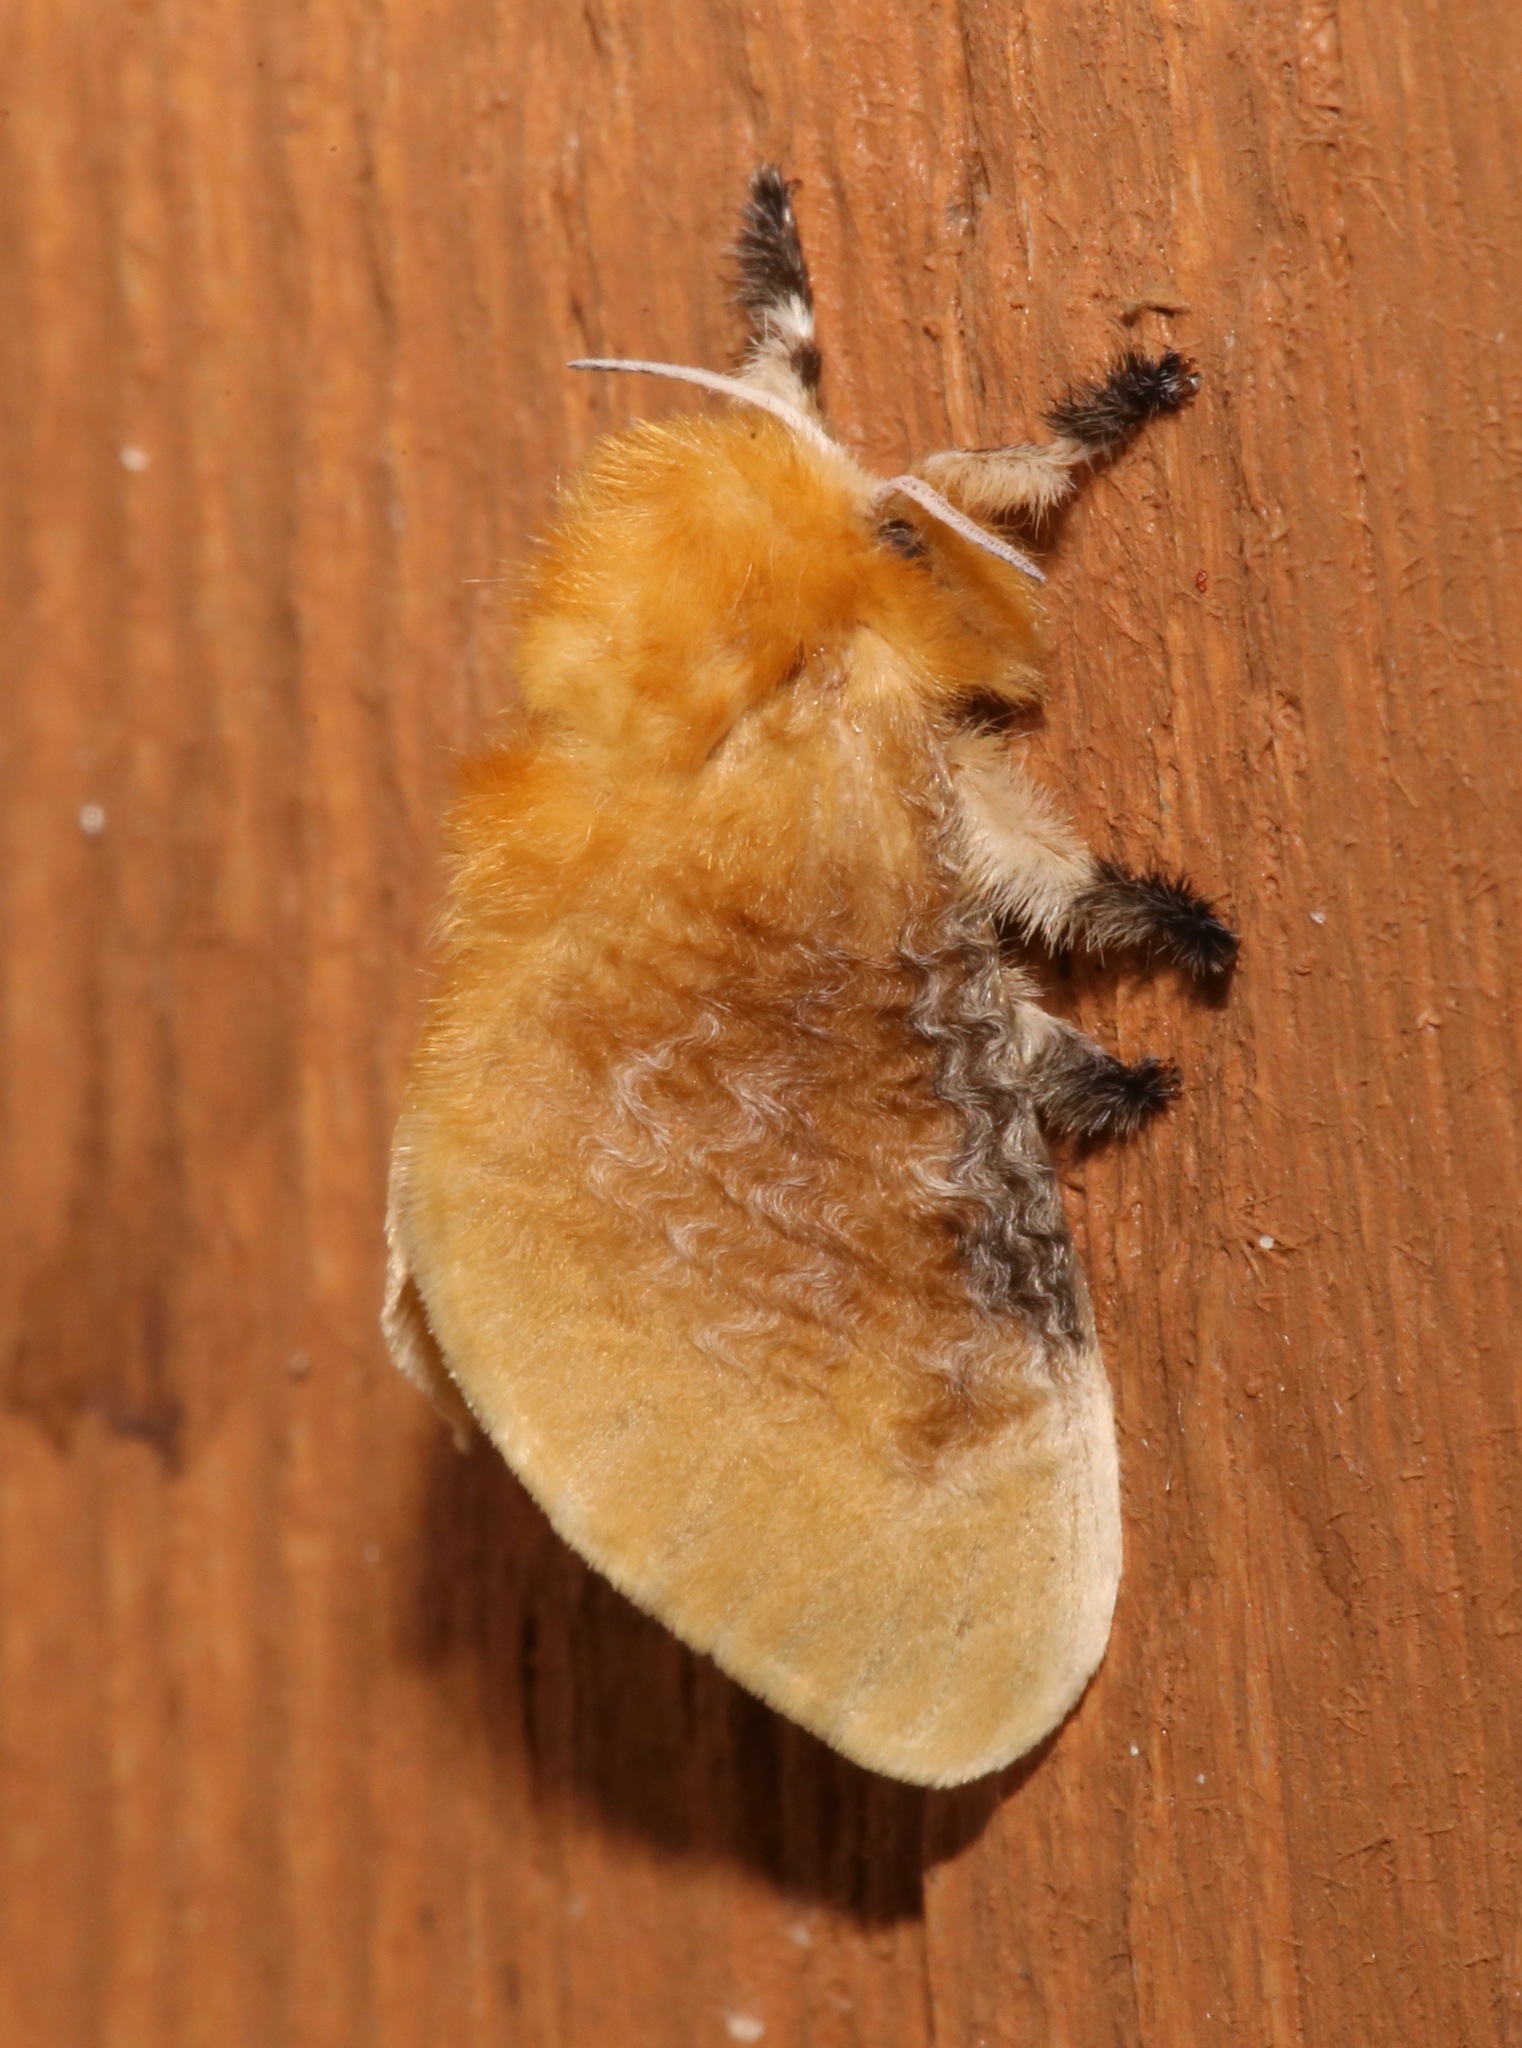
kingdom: Animalia
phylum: Arthropoda
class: Insecta
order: Lepidoptera
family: Megalopygidae
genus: Megalopyge
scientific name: Megalopyge opercularis
